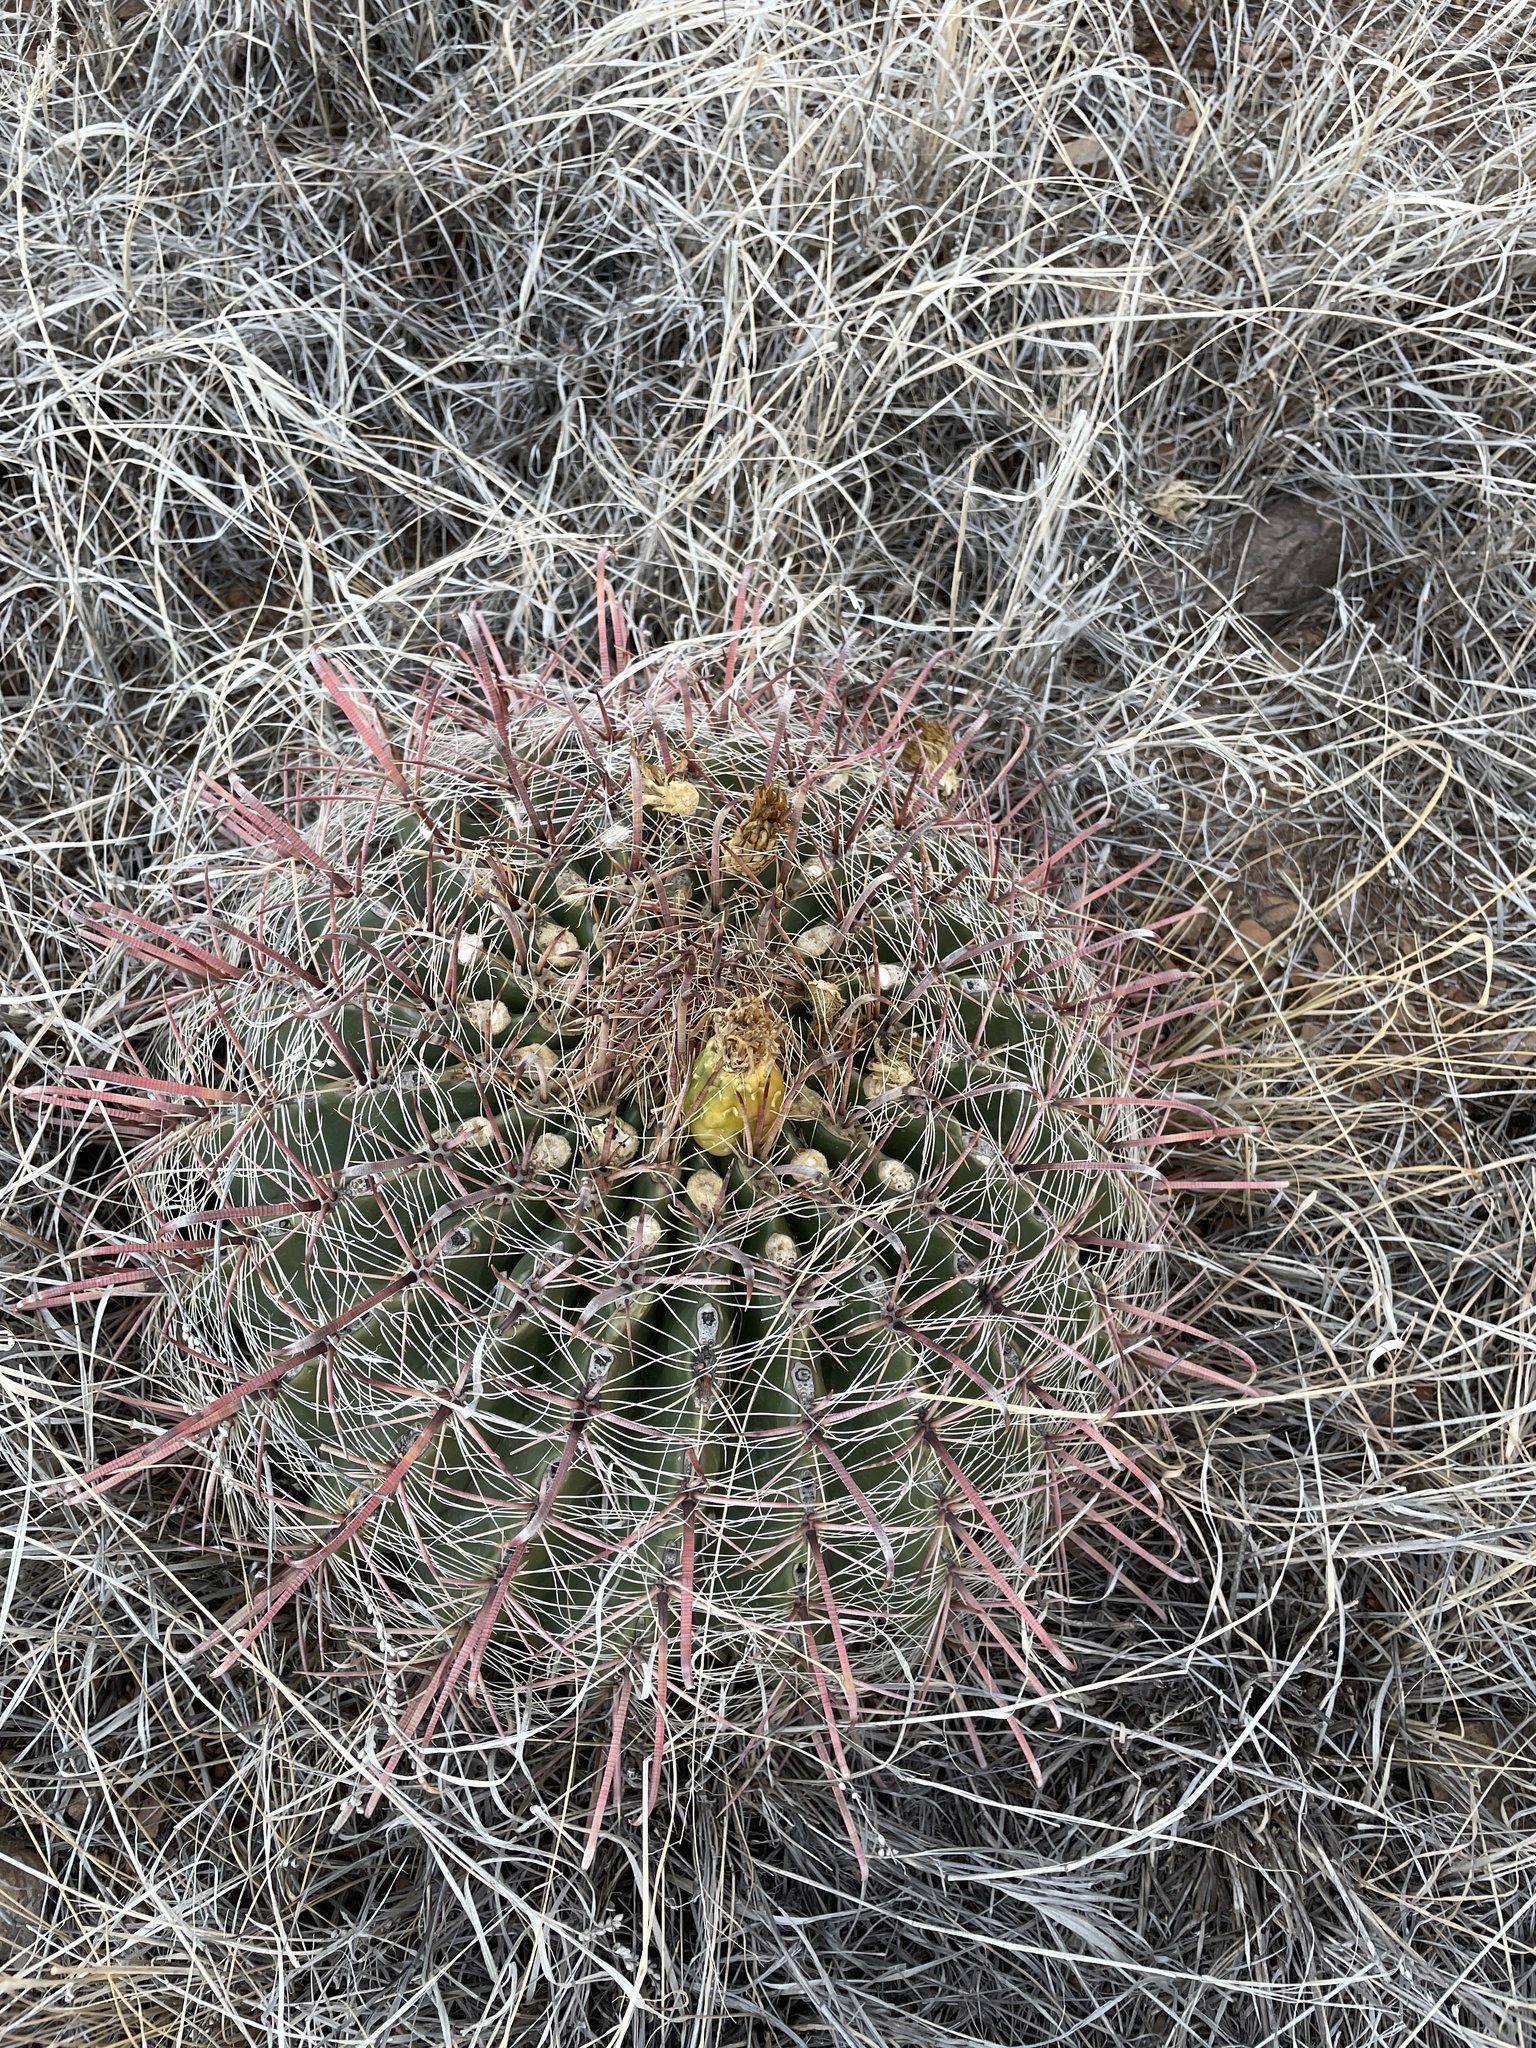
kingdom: Plantae
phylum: Tracheophyta
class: Magnoliopsida
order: Caryophyllales
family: Cactaceae
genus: Ferocactus
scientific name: Ferocactus wislizeni
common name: Candy barrel cactus
